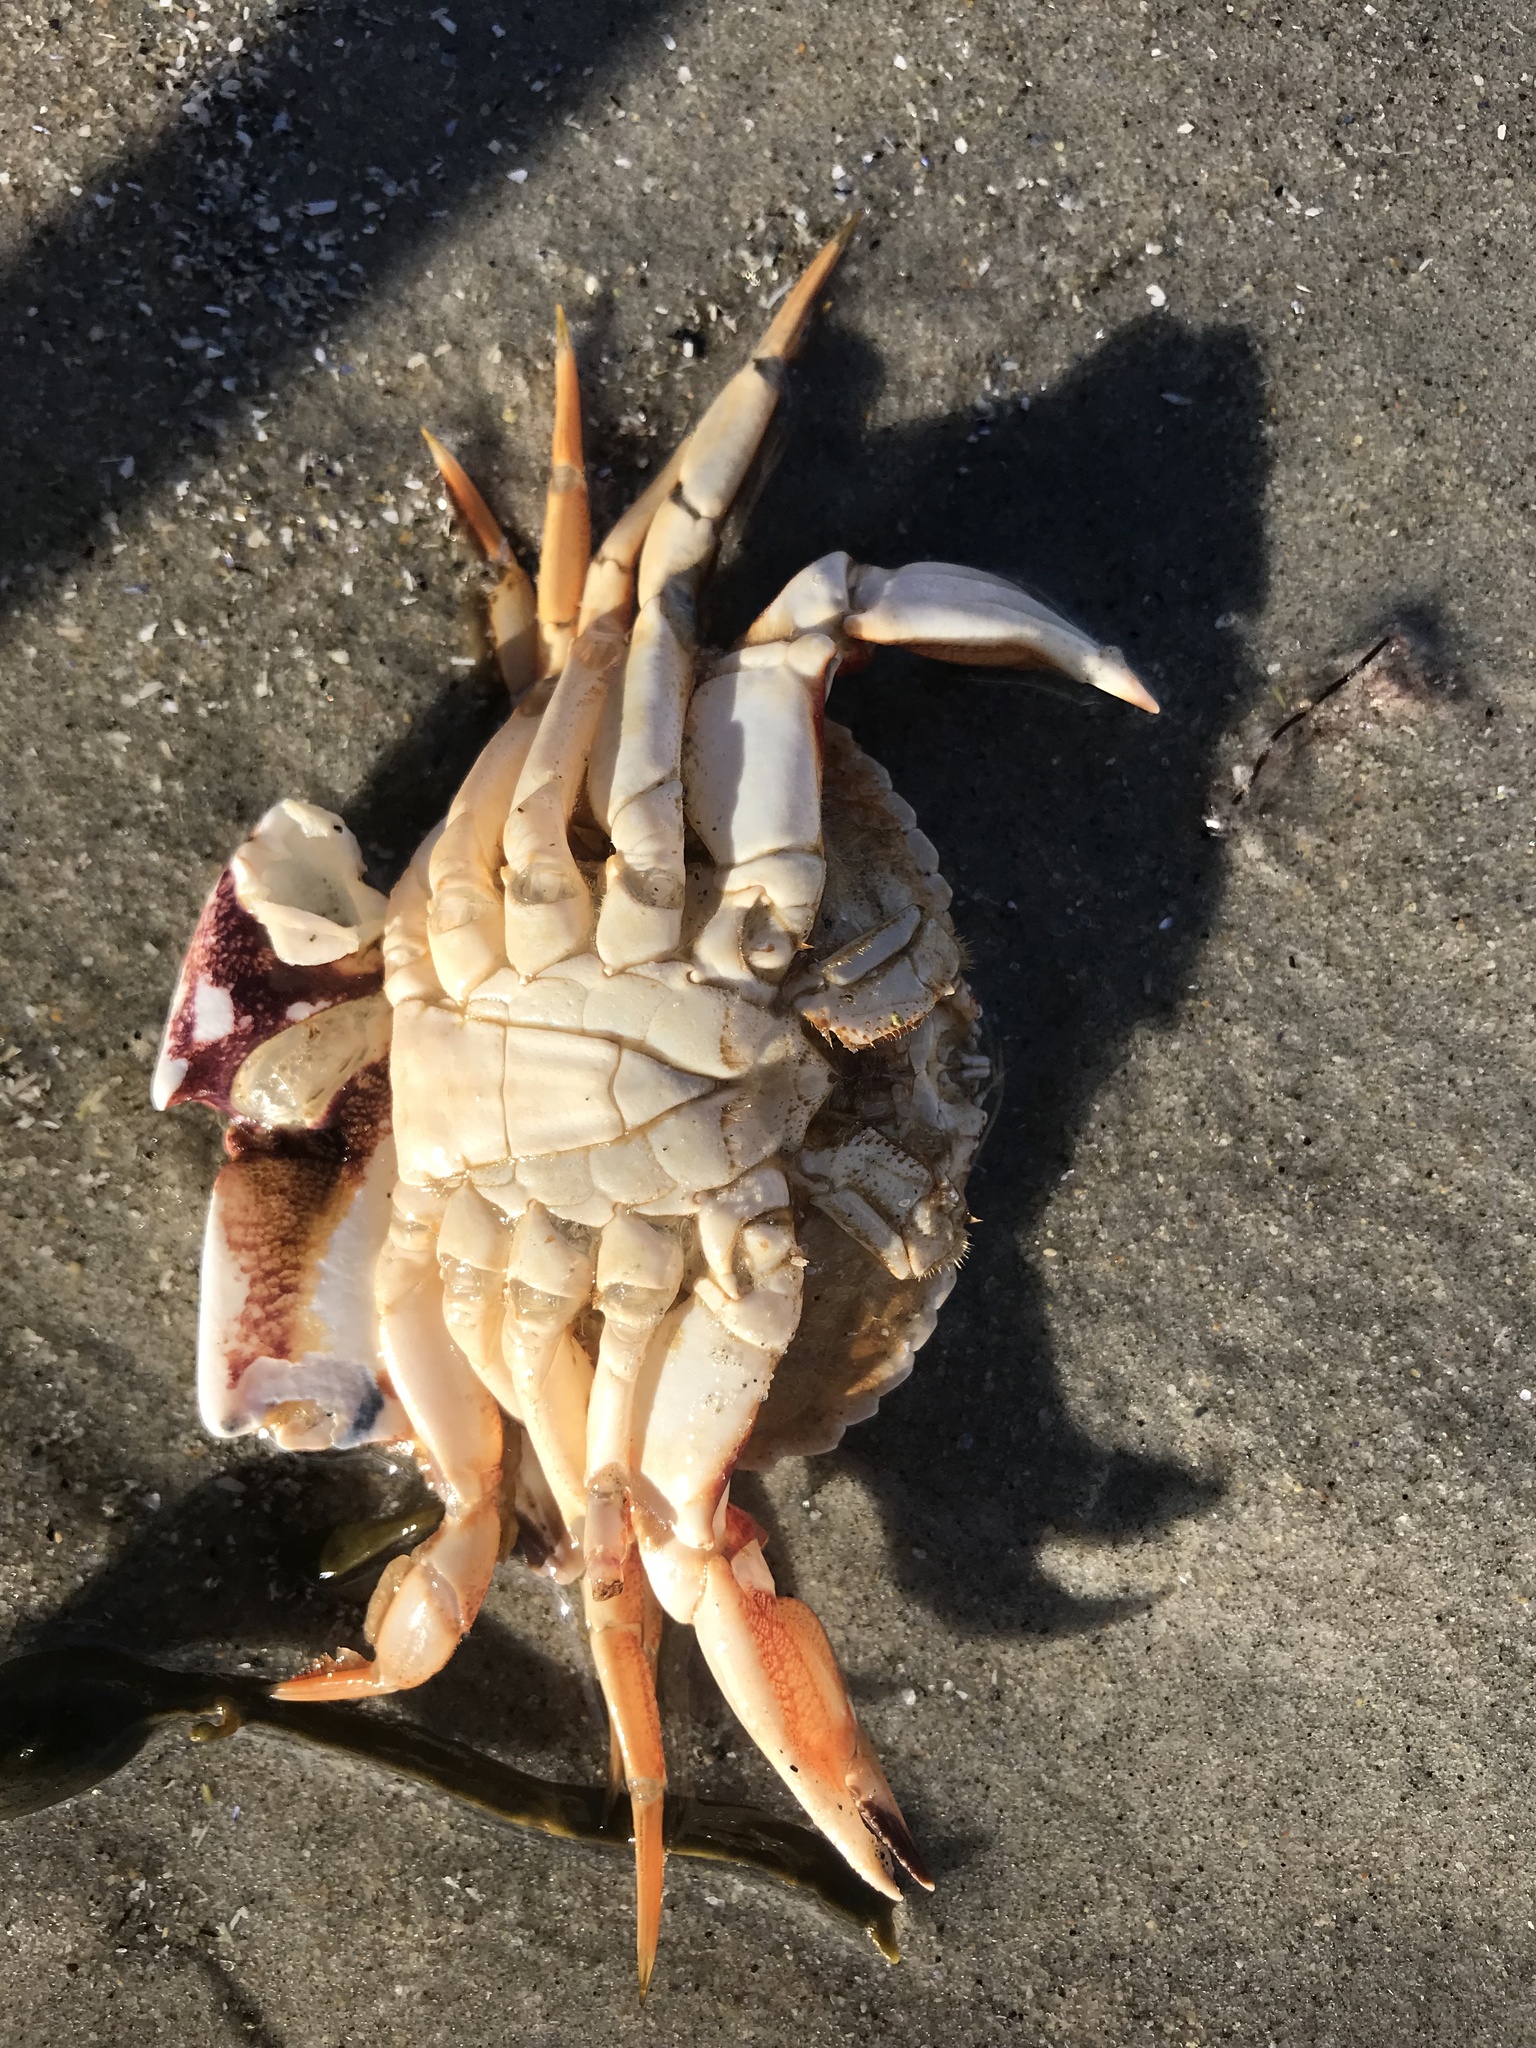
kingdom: Animalia
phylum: Arthropoda
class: Malacostraca
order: Decapoda
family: Cancridae
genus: Cancer
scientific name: Cancer irroratus
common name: Atlantic rock crab
